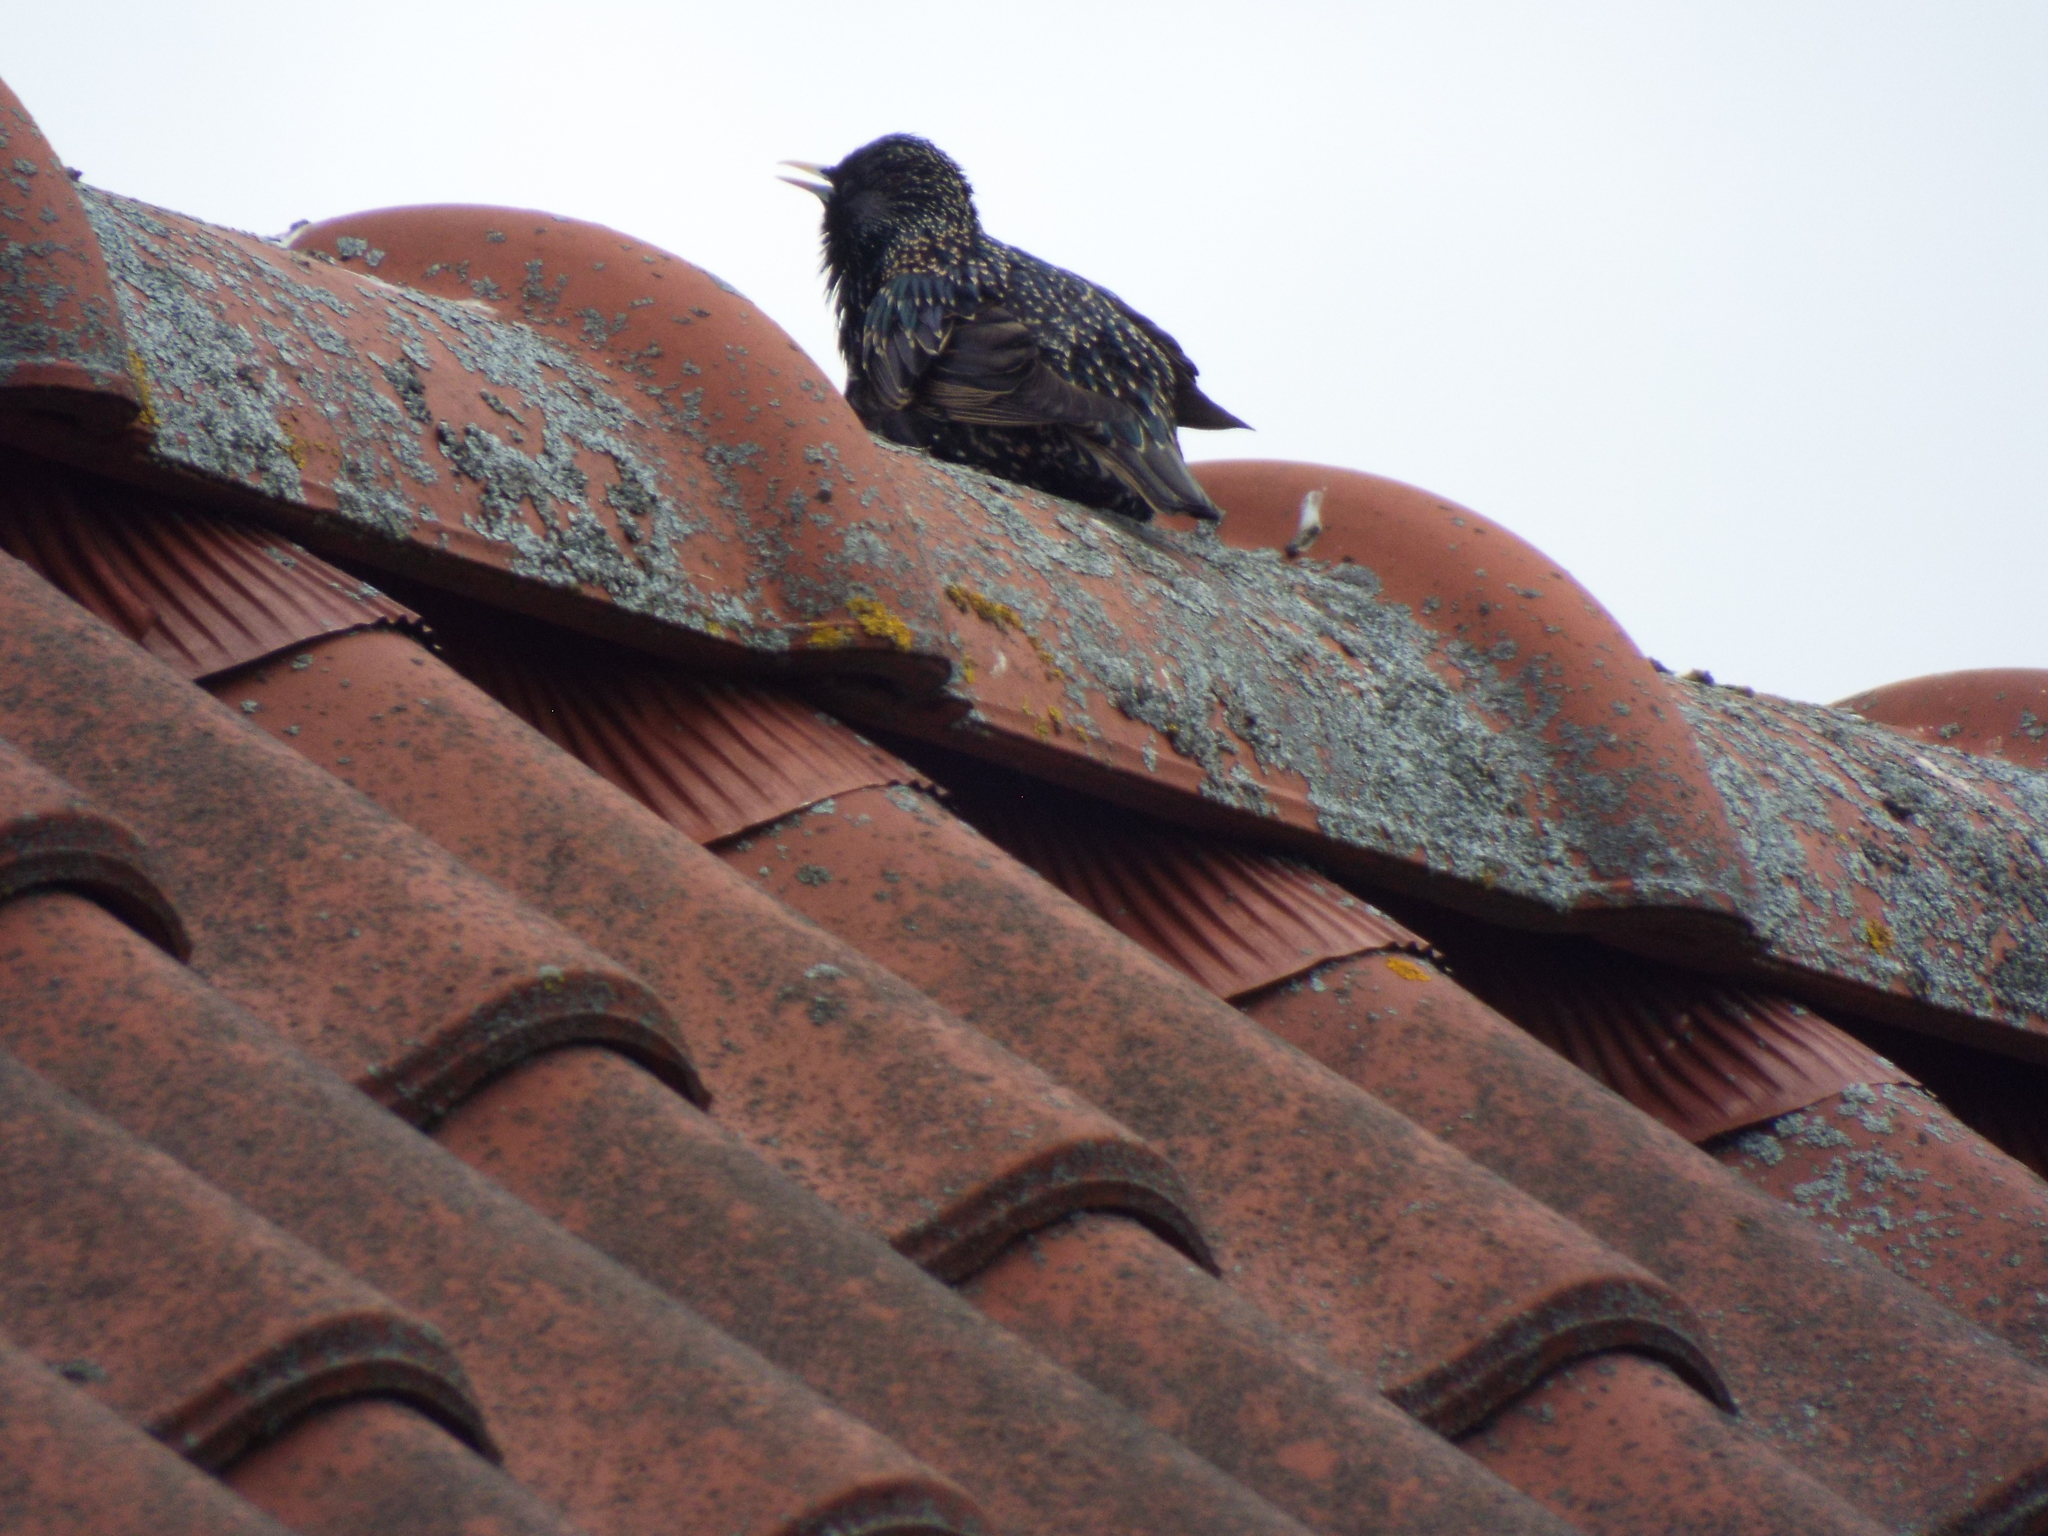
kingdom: Animalia
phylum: Chordata
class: Aves
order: Passeriformes
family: Sturnidae
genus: Sturnus
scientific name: Sturnus vulgaris
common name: Common starling
